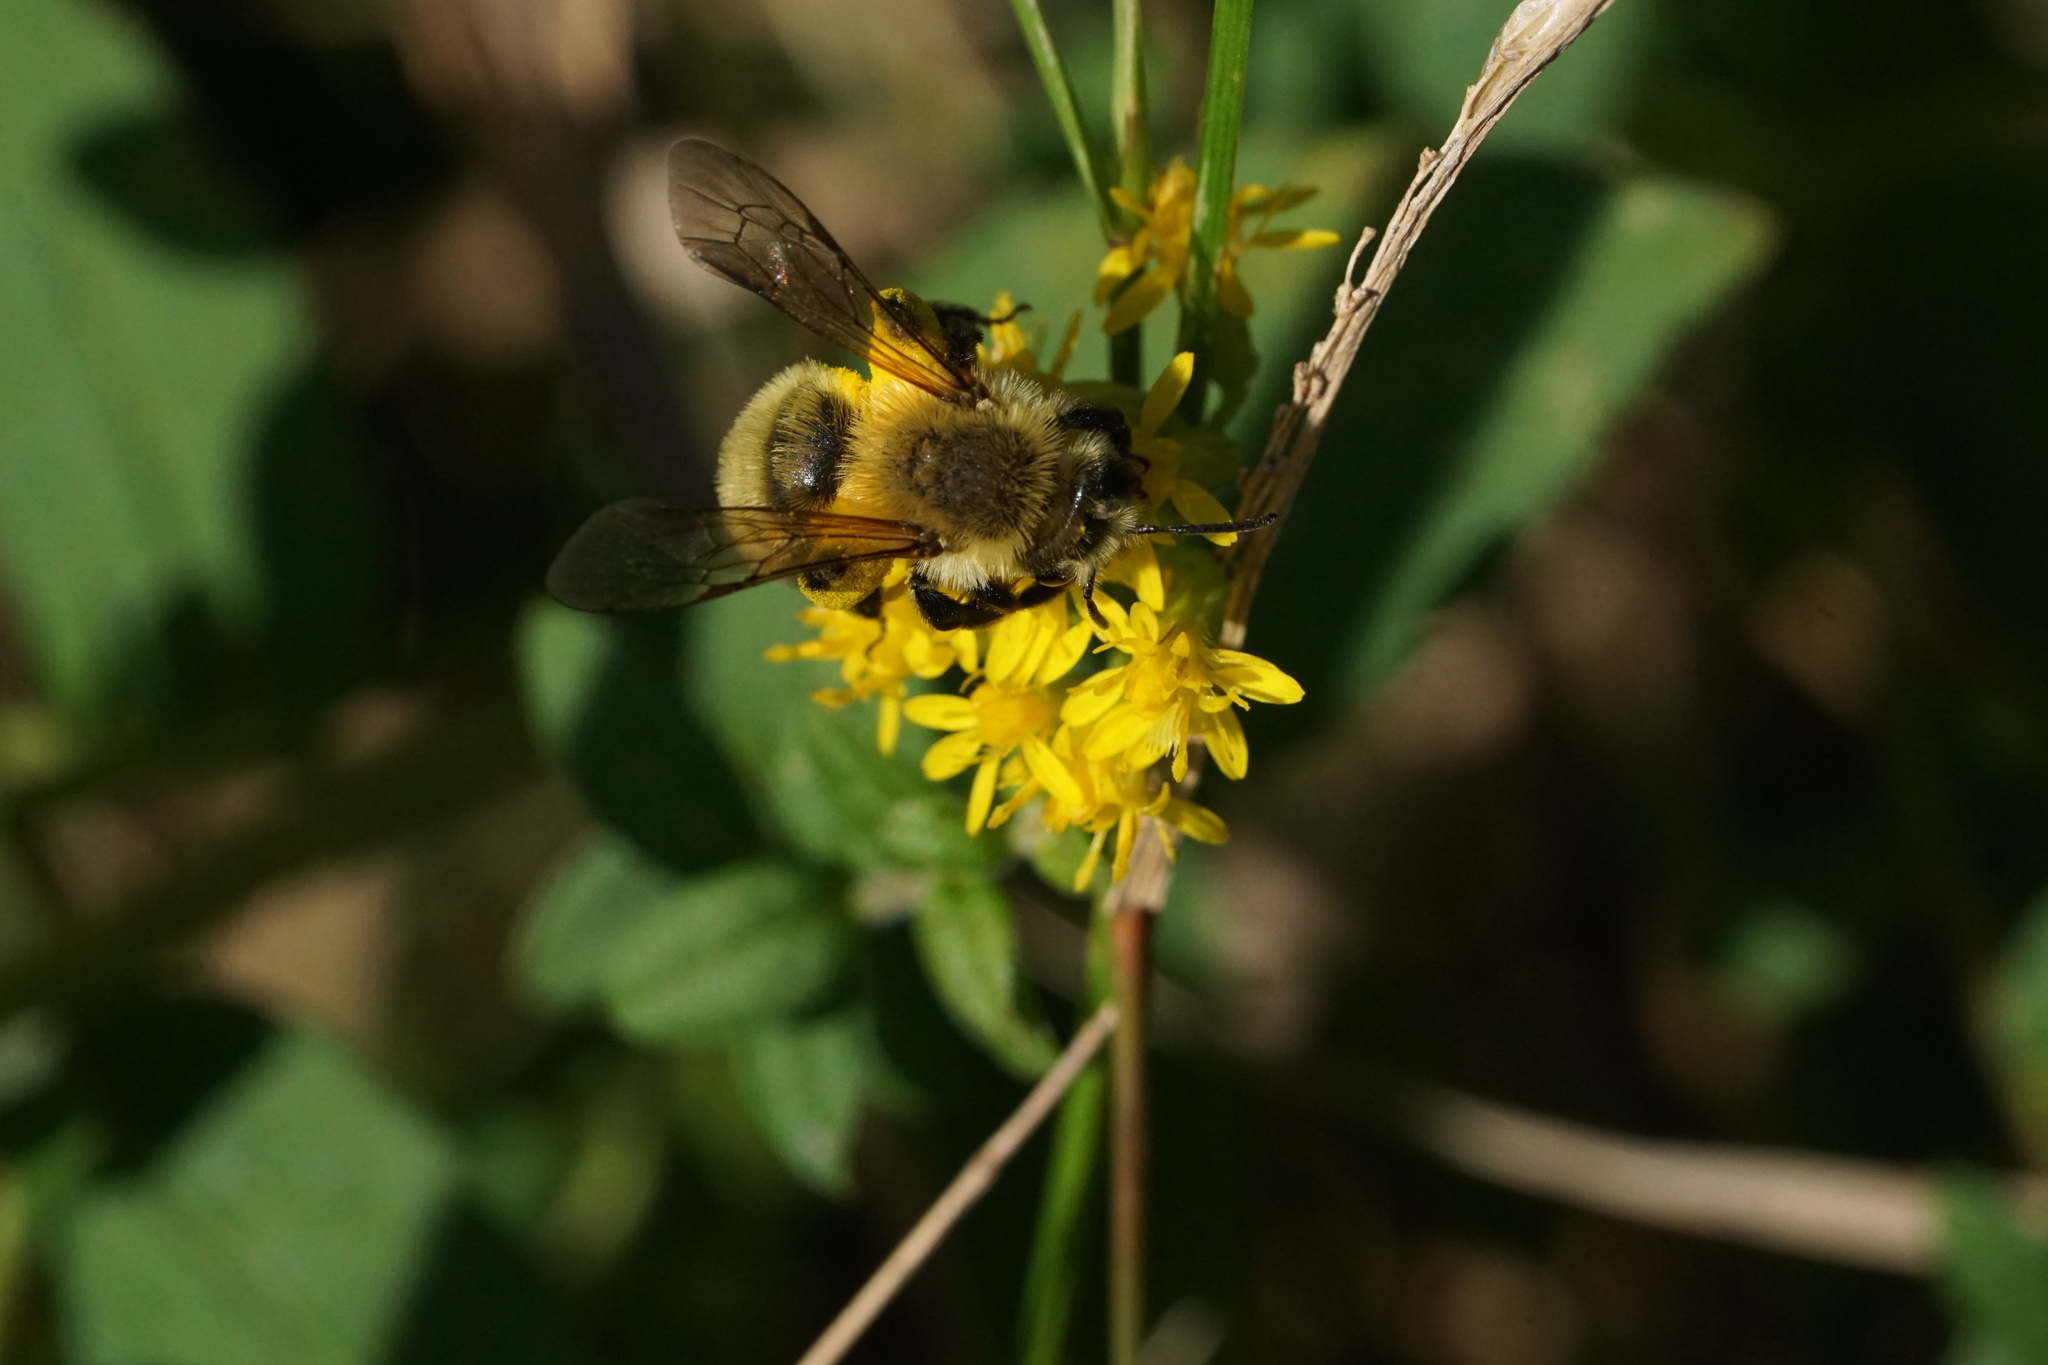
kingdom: Animalia
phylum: Arthropoda
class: Insecta
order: Hymenoptera
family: Andrenidae
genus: Andrena
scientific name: Andrena hirticincta
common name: Hairy-banded mining bee
